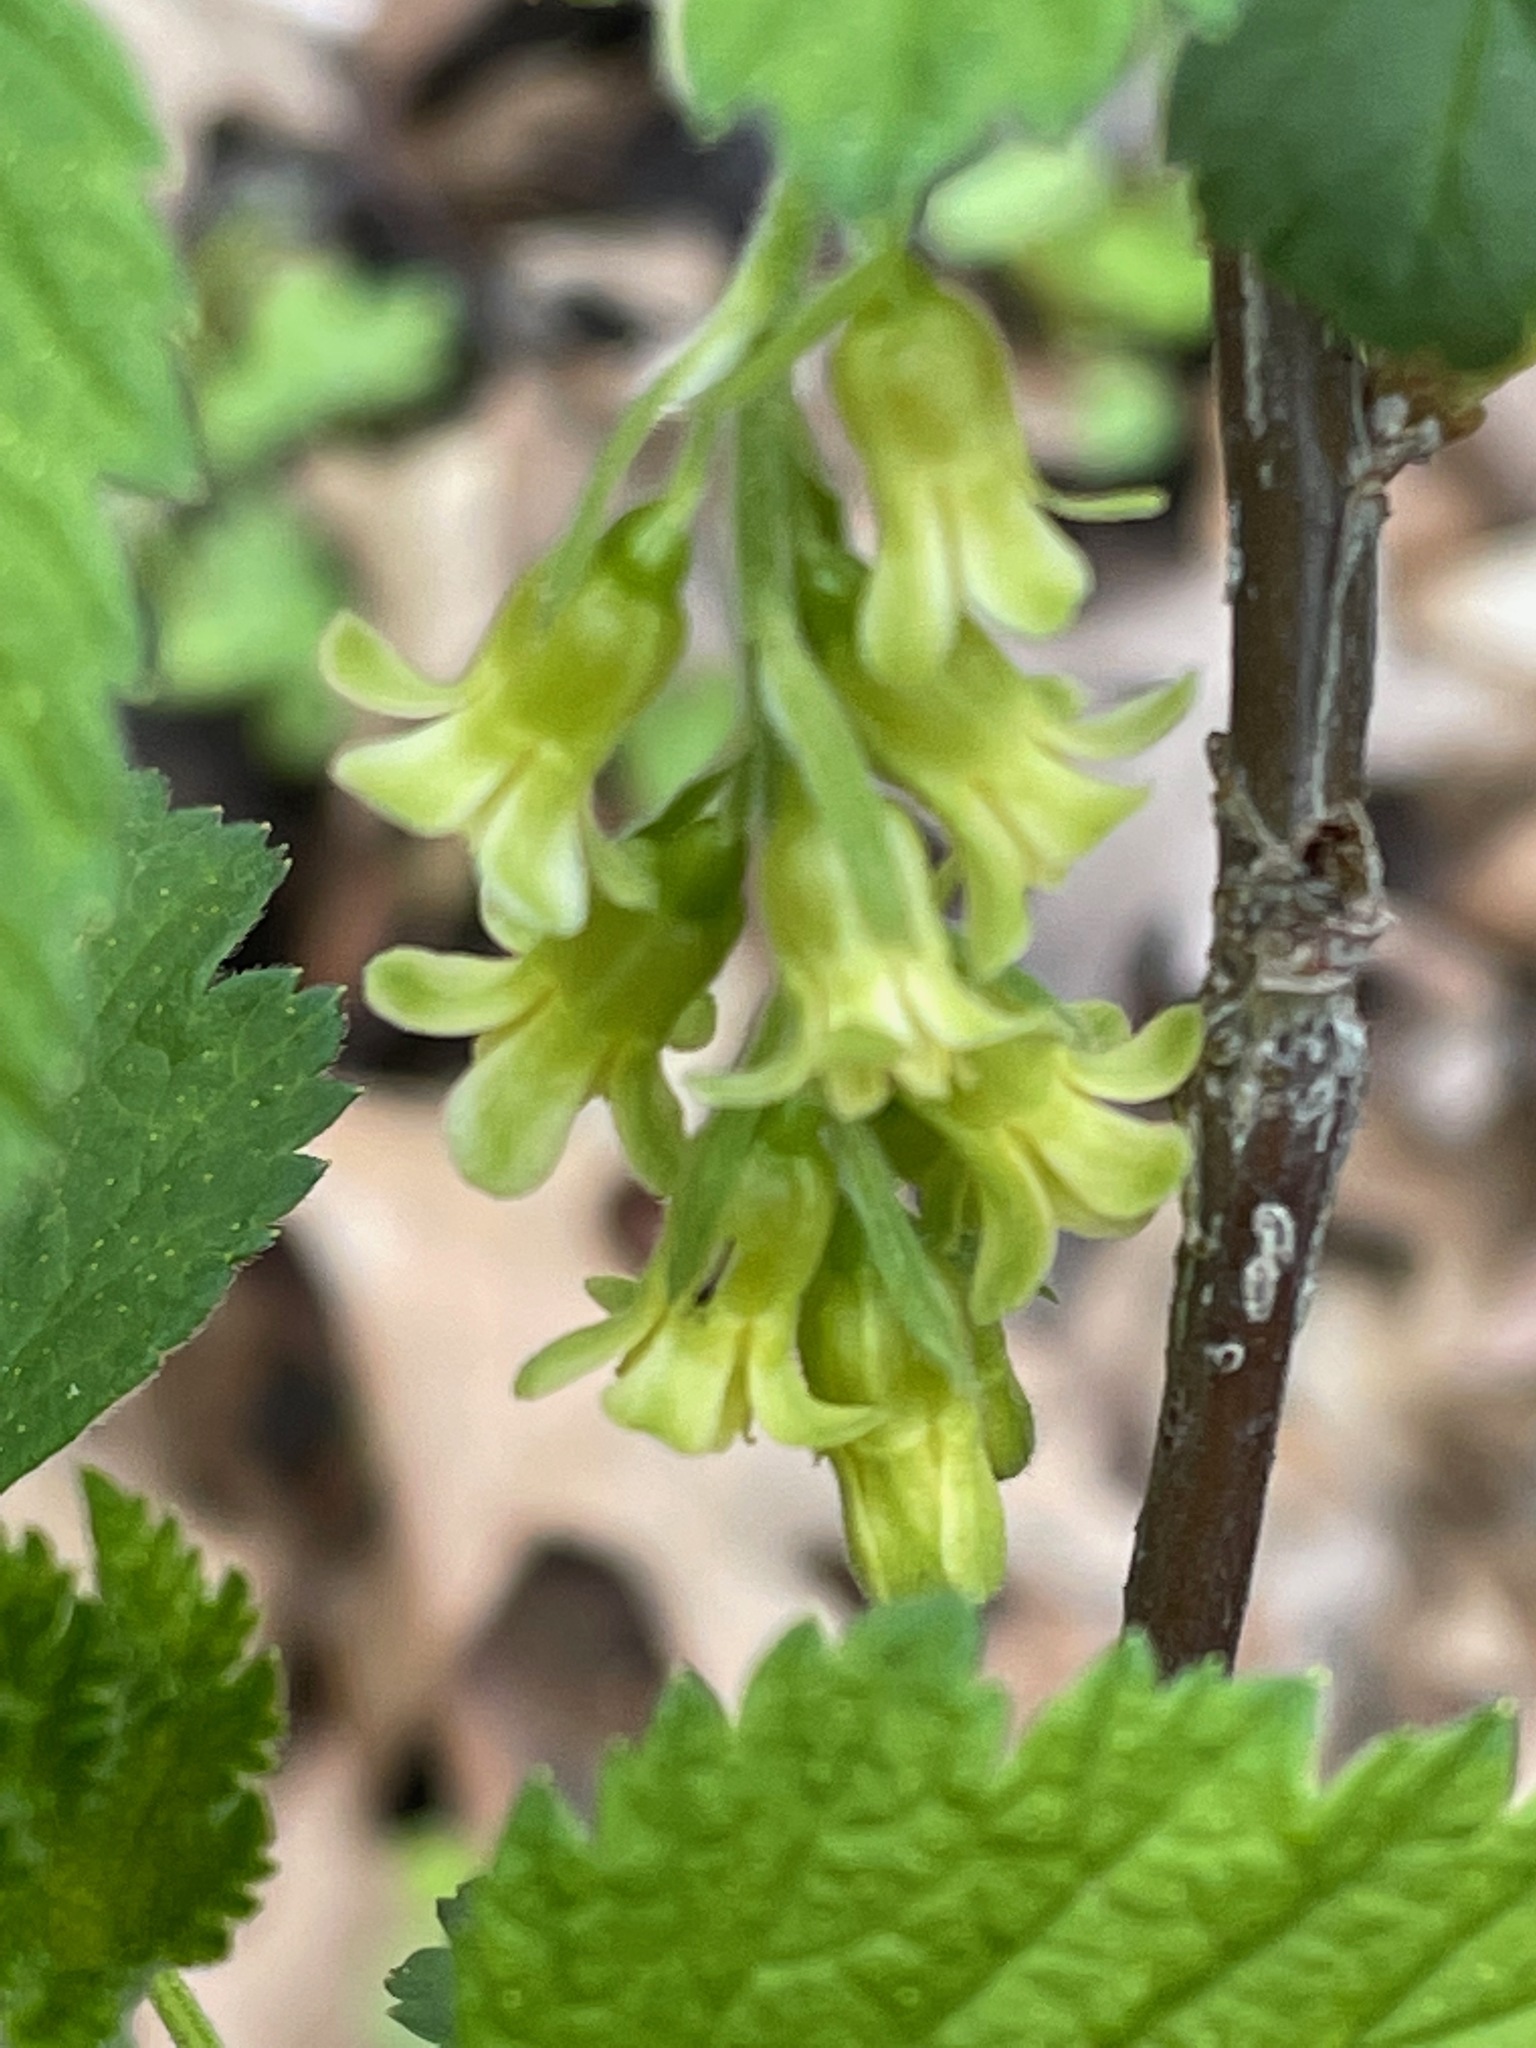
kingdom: Plantae
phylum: Tracheophyta
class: Magnoliopsida
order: Saxifragales
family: Grossulariaceae
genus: Ribes
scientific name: Ribes americanum
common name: American black currant
